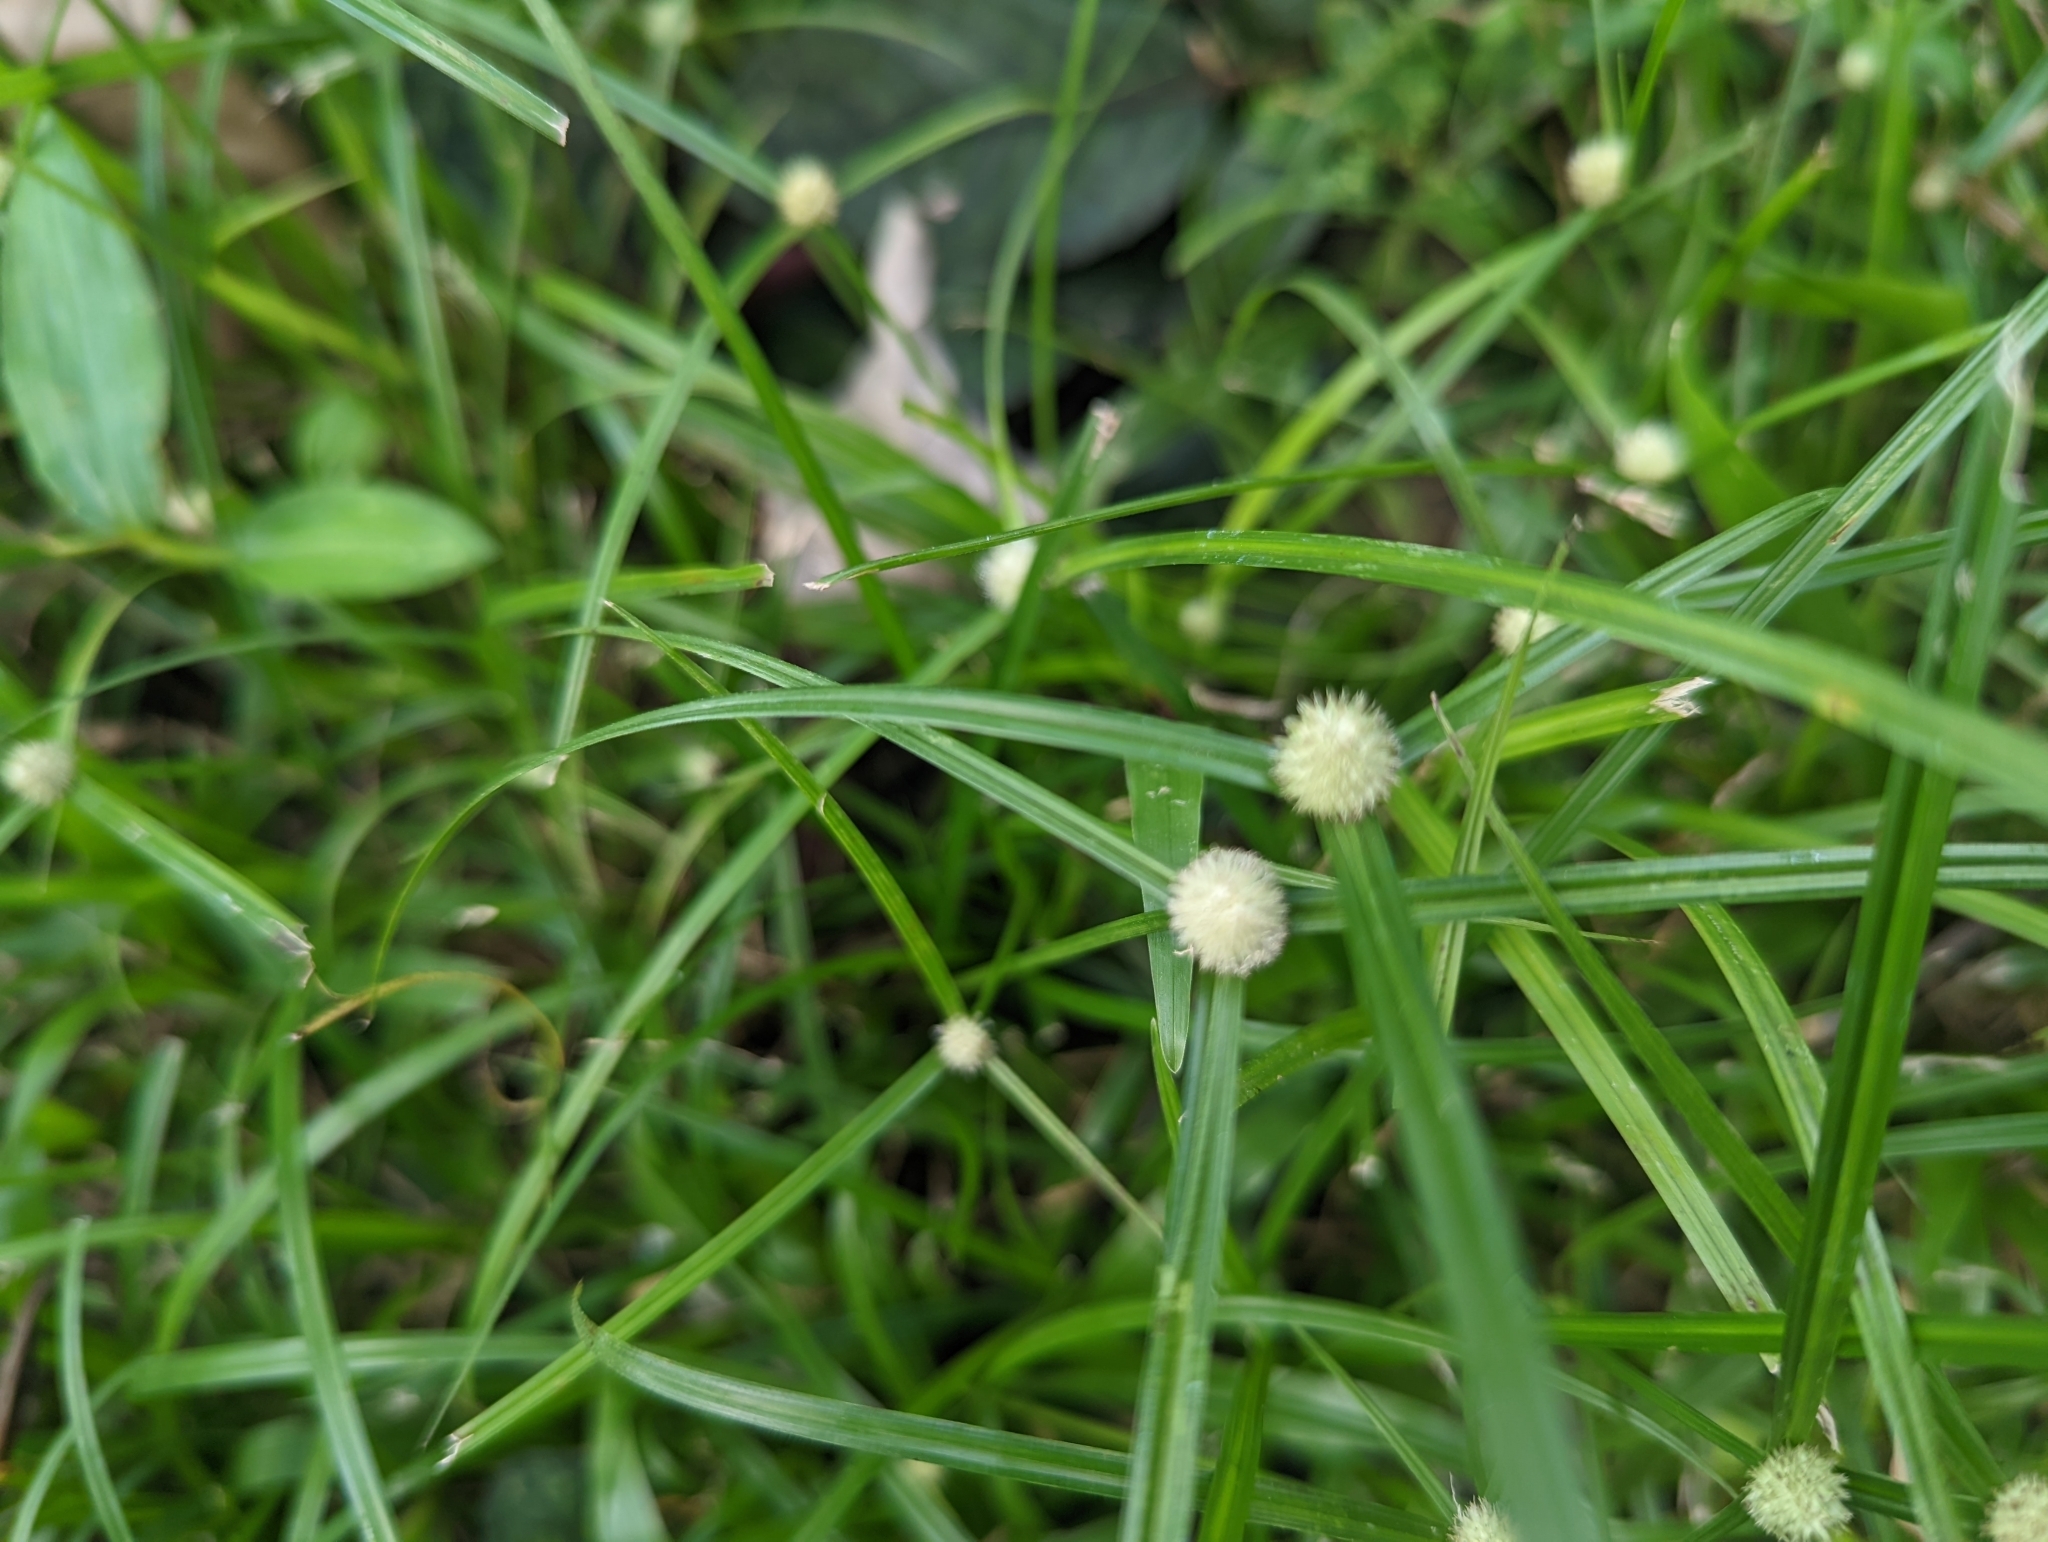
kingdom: Plantae
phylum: Tracheophyta
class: Liliopsida
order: Poales
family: Cyperaceae
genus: Cyperus
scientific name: Cyperus mindorensis
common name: Flatsedge
